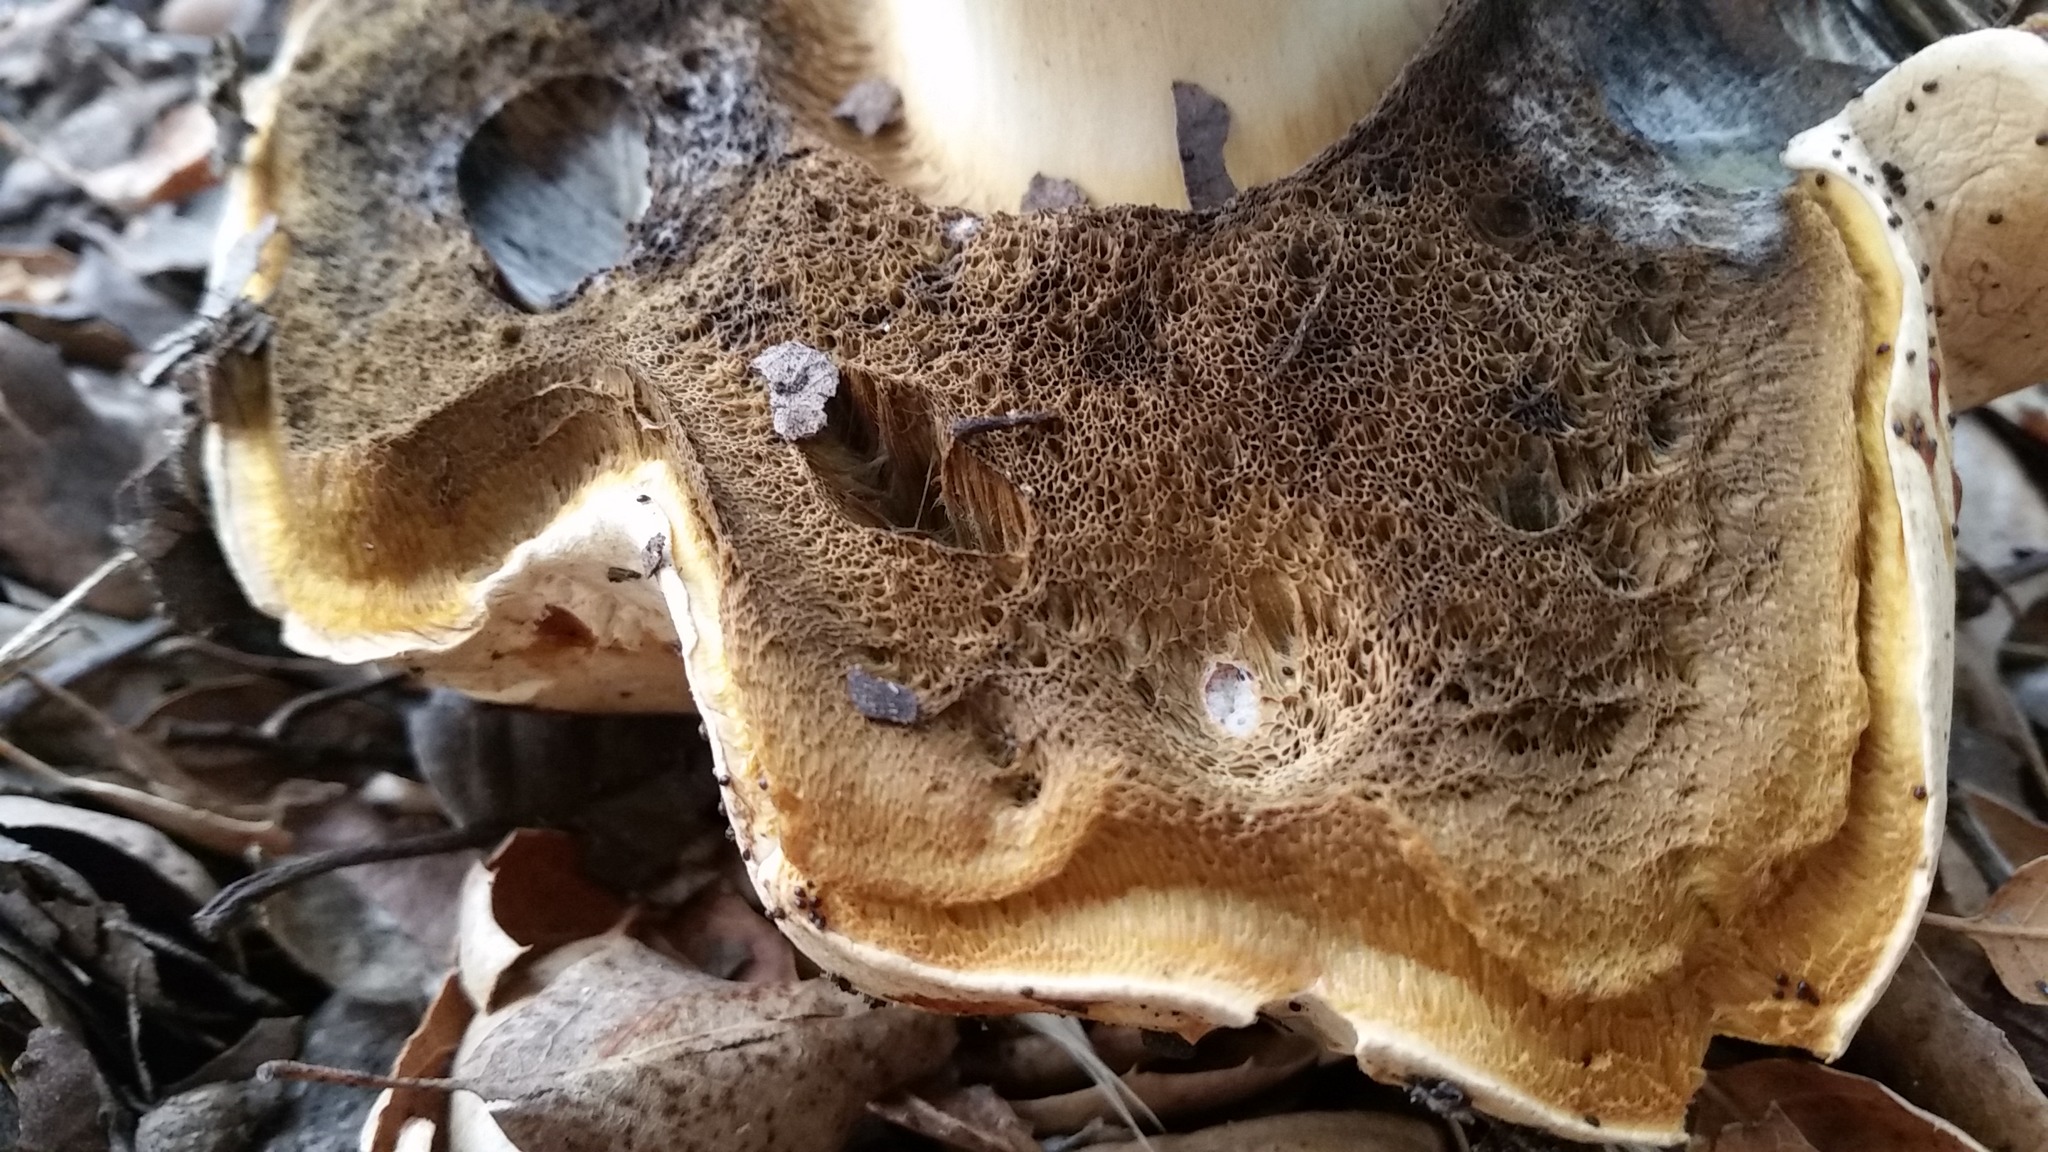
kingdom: Fungi
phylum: Basidiomycota
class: Agaricomycetes
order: Boletales
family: Boletaceae
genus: Boletus
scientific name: Boletus barrowsii
